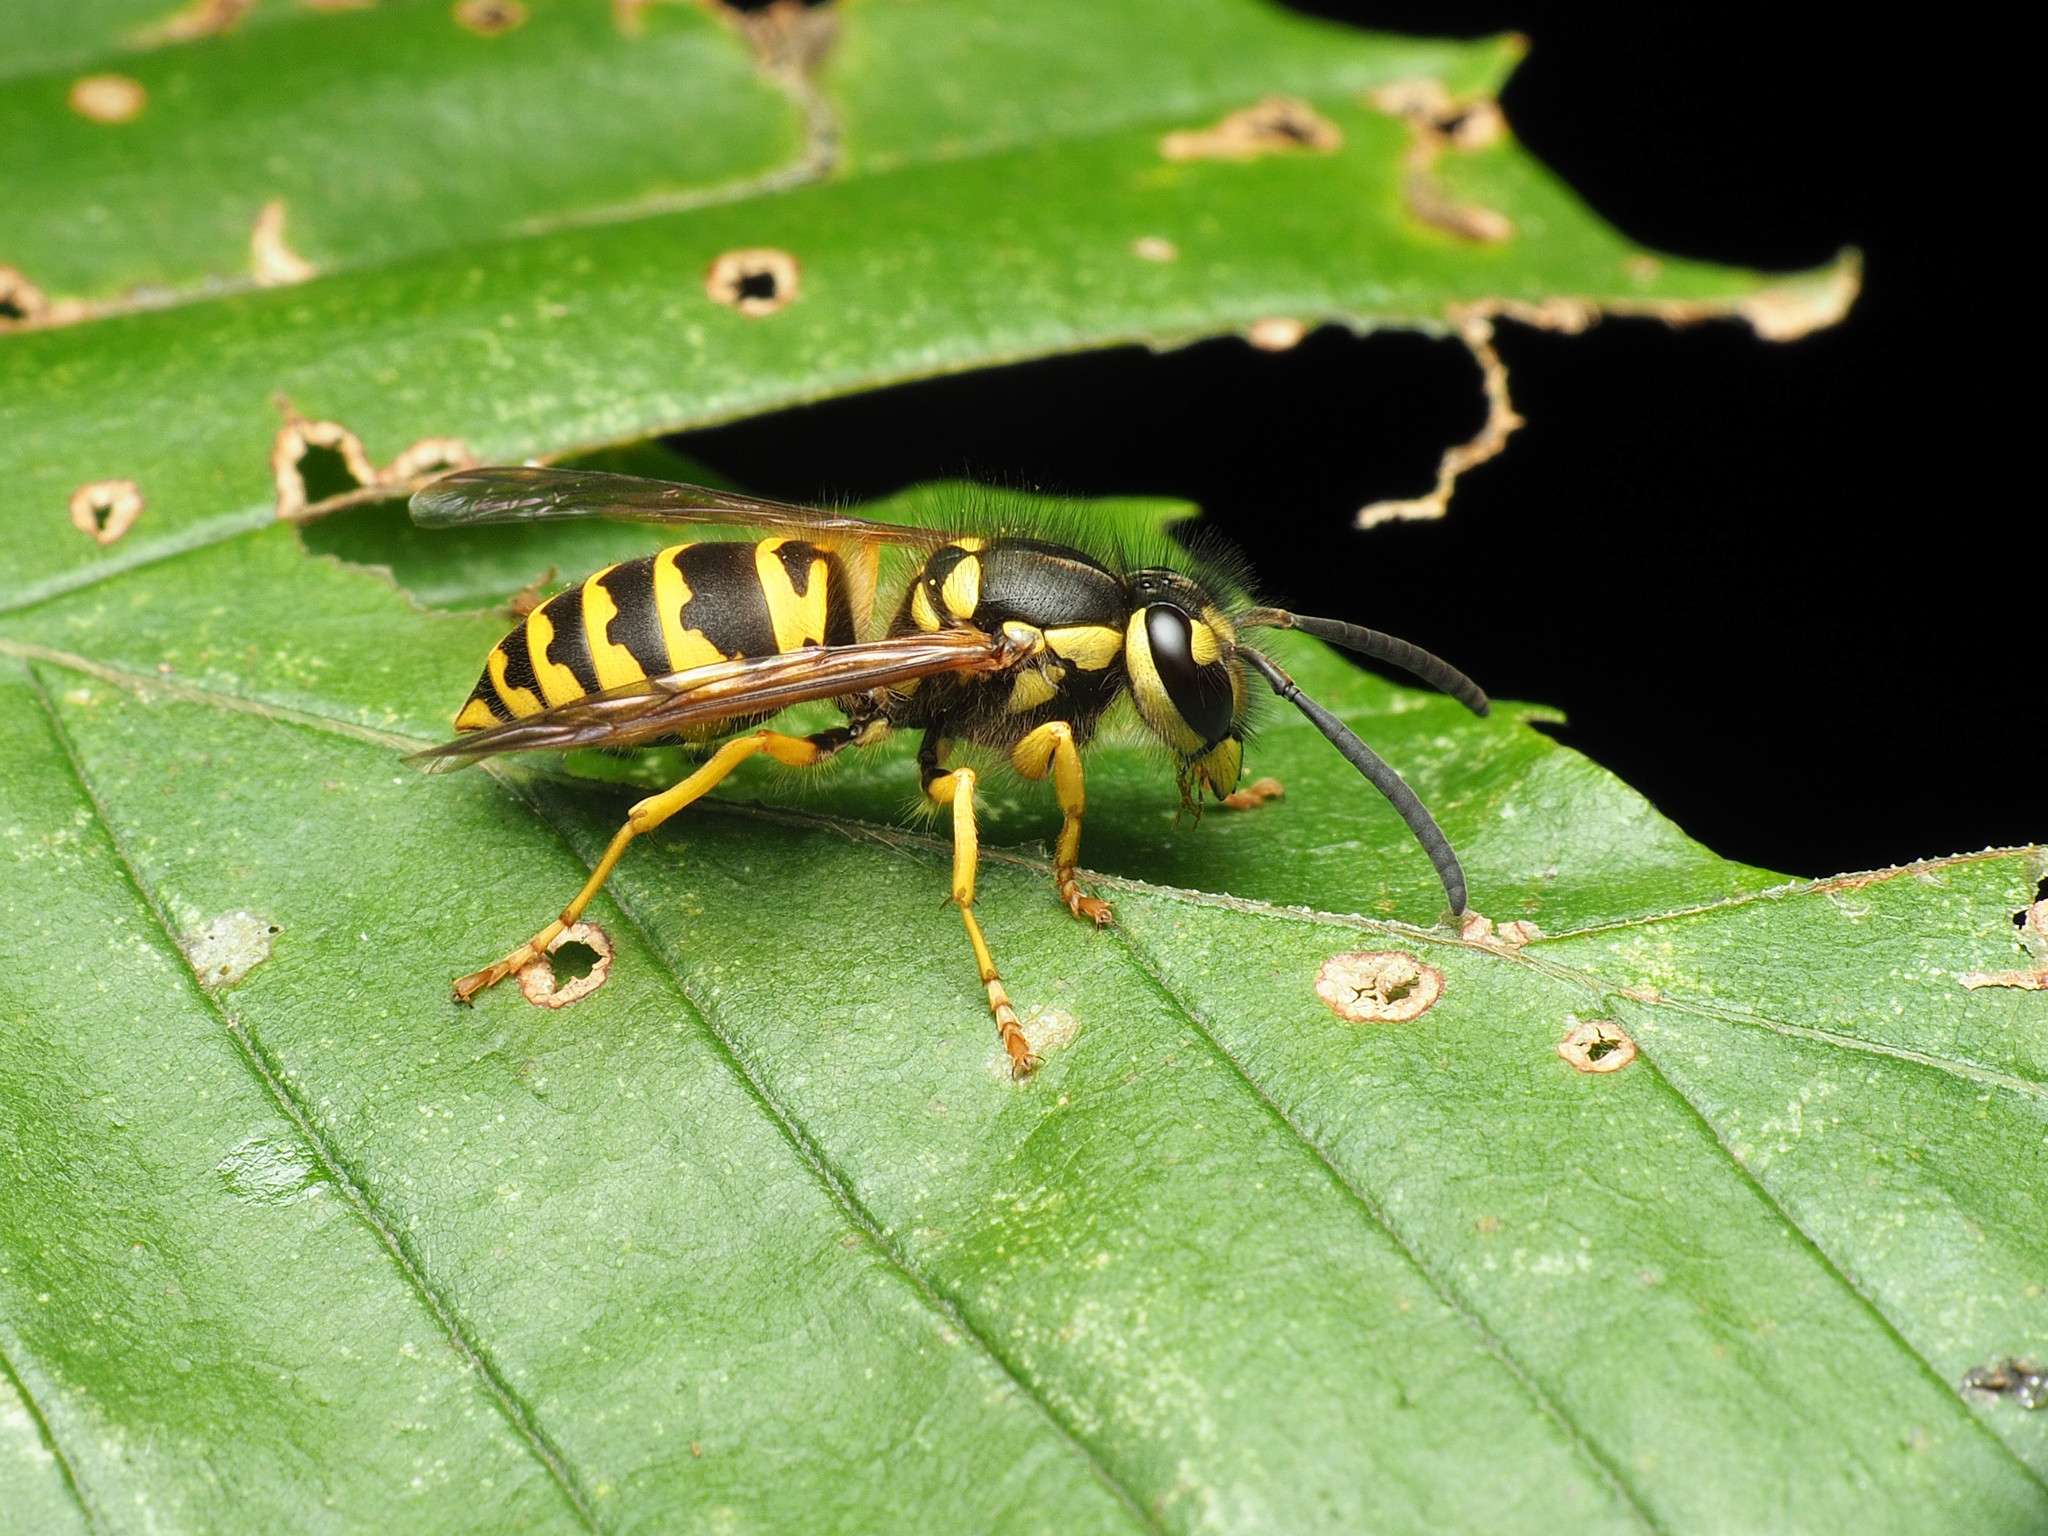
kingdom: Animalia
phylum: Arthropoda
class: Insecta
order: Hymenoptera
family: Vespidae
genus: Vespula
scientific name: Vespula maculifrons
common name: Eastern yellowjacket
